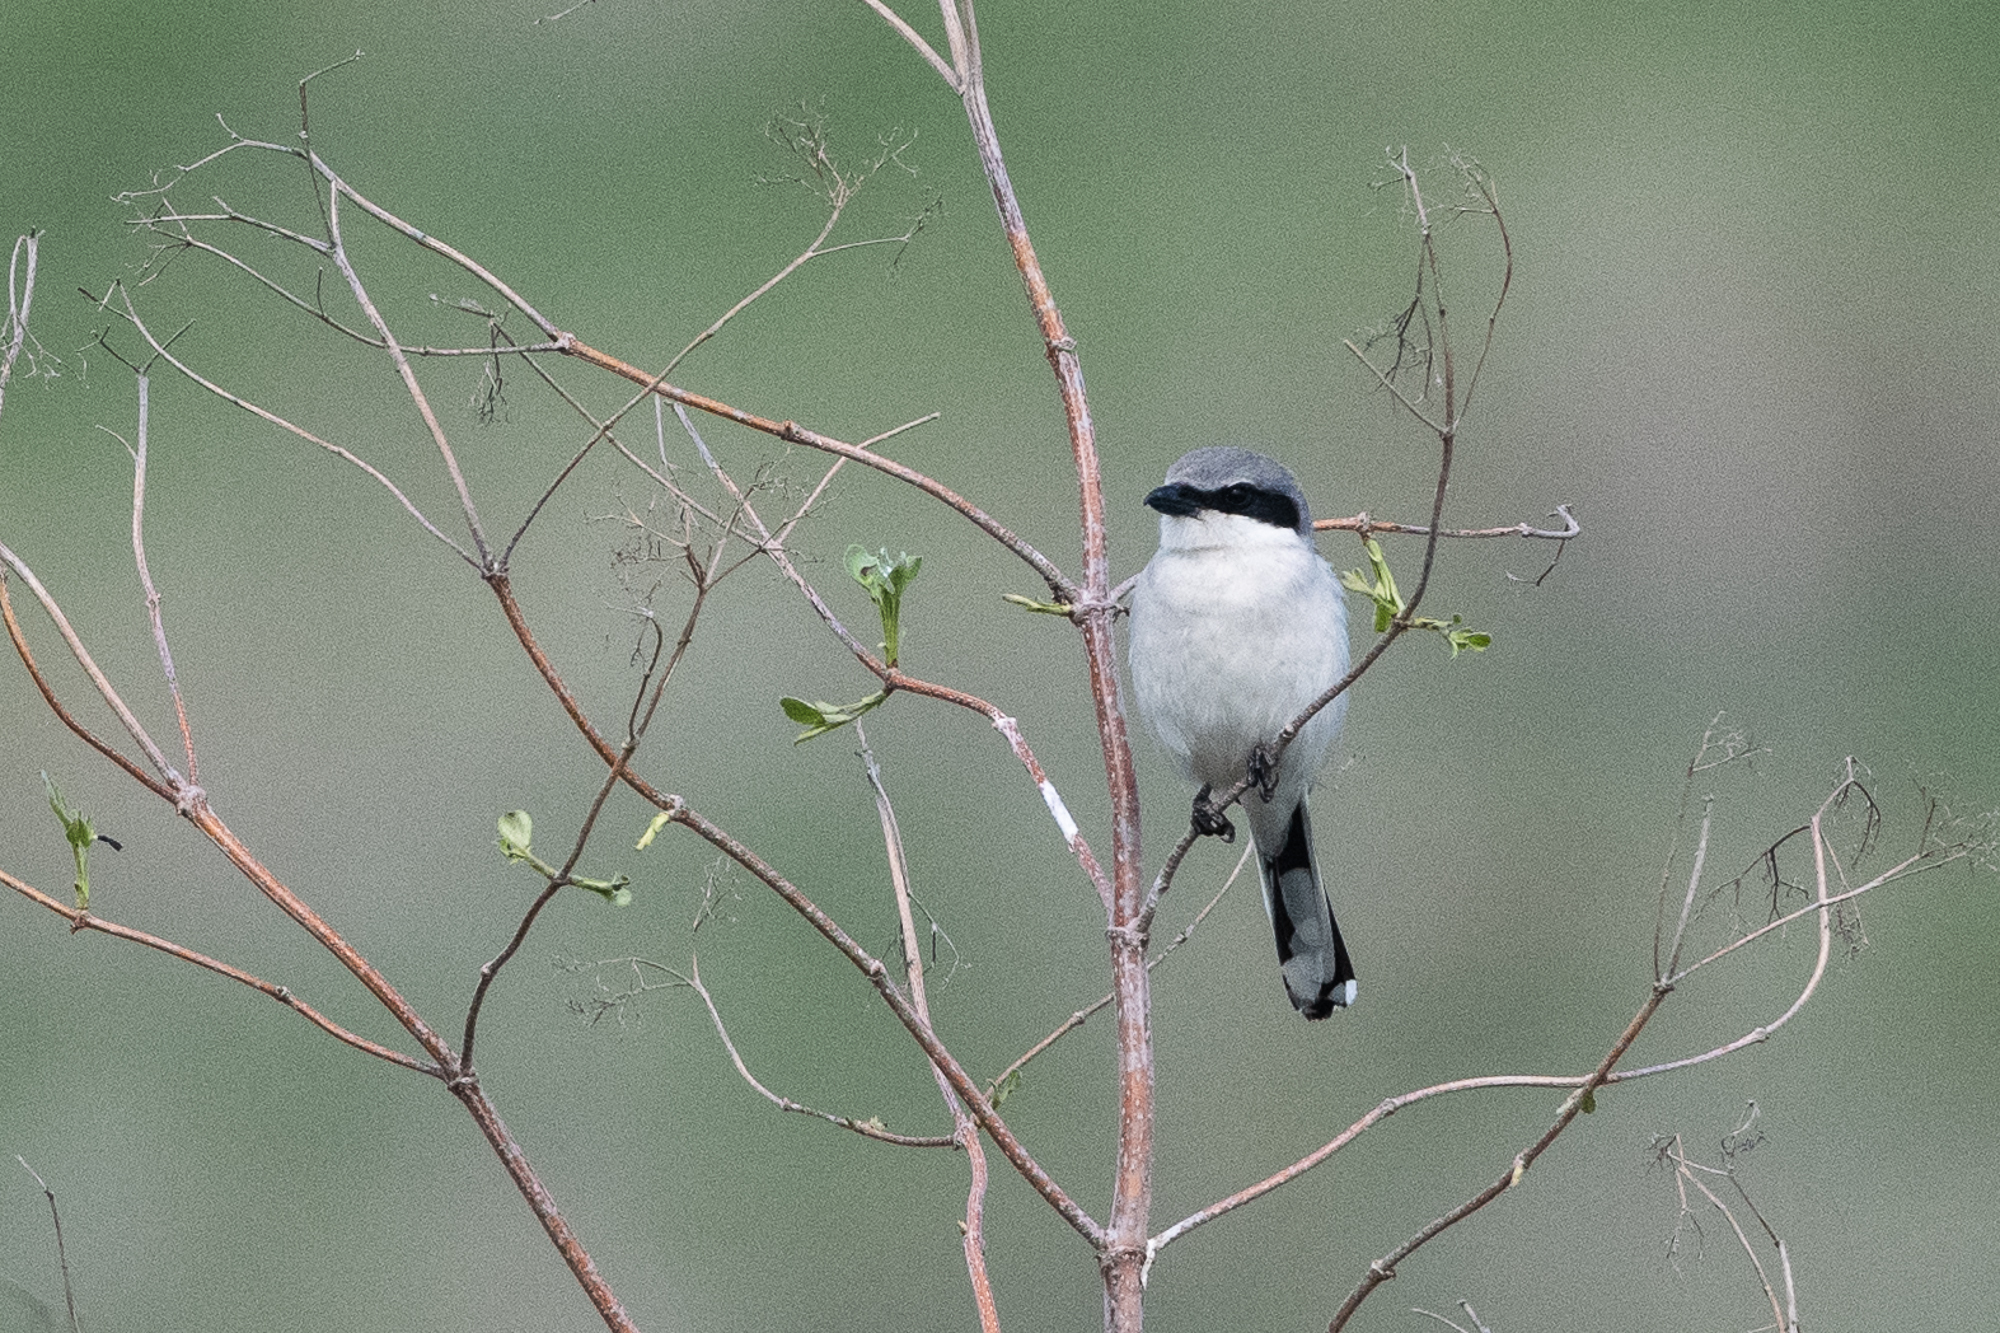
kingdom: Animalia
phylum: Chordata
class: Aves
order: Passeriformes
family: Laniidae
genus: Lanius
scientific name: Lanius ludovicianus
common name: Loggerhead shrike
